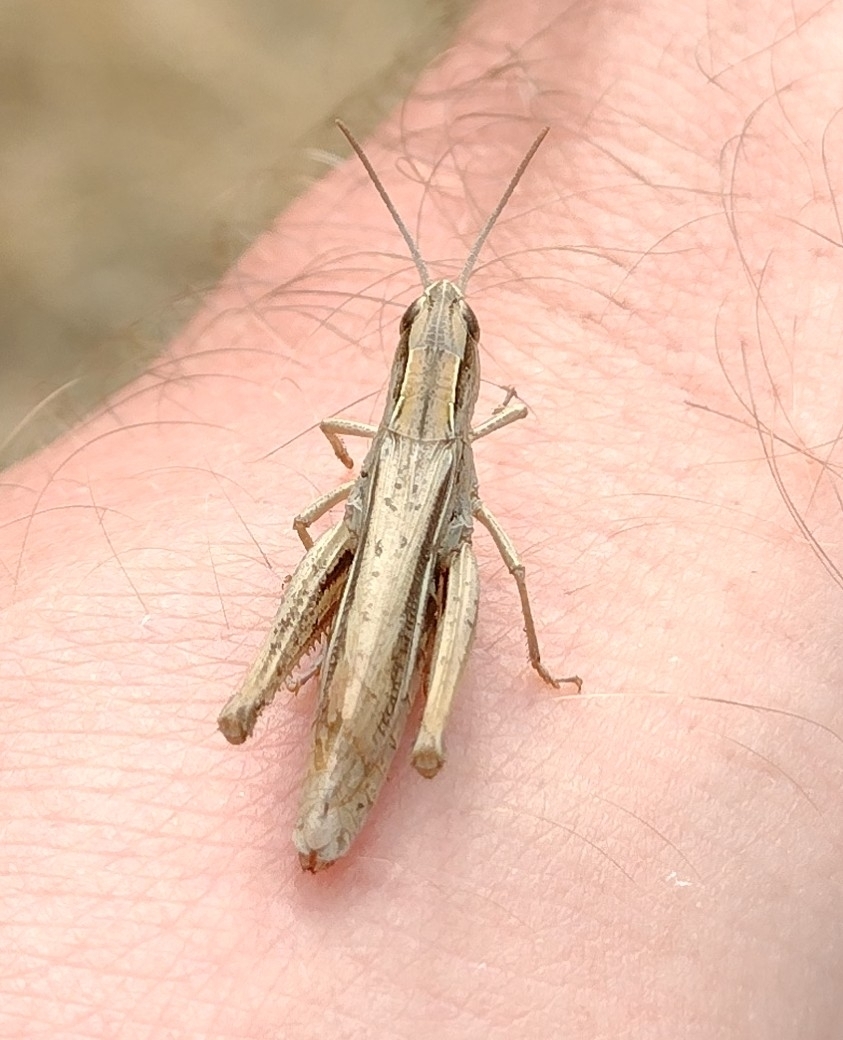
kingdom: Animalia
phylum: Arthropoda
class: Insecta
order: Orthoptera
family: Acrididae
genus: Chorthippus
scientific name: Chorthippus albomarginatus
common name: Lesser marsh grasshopper
